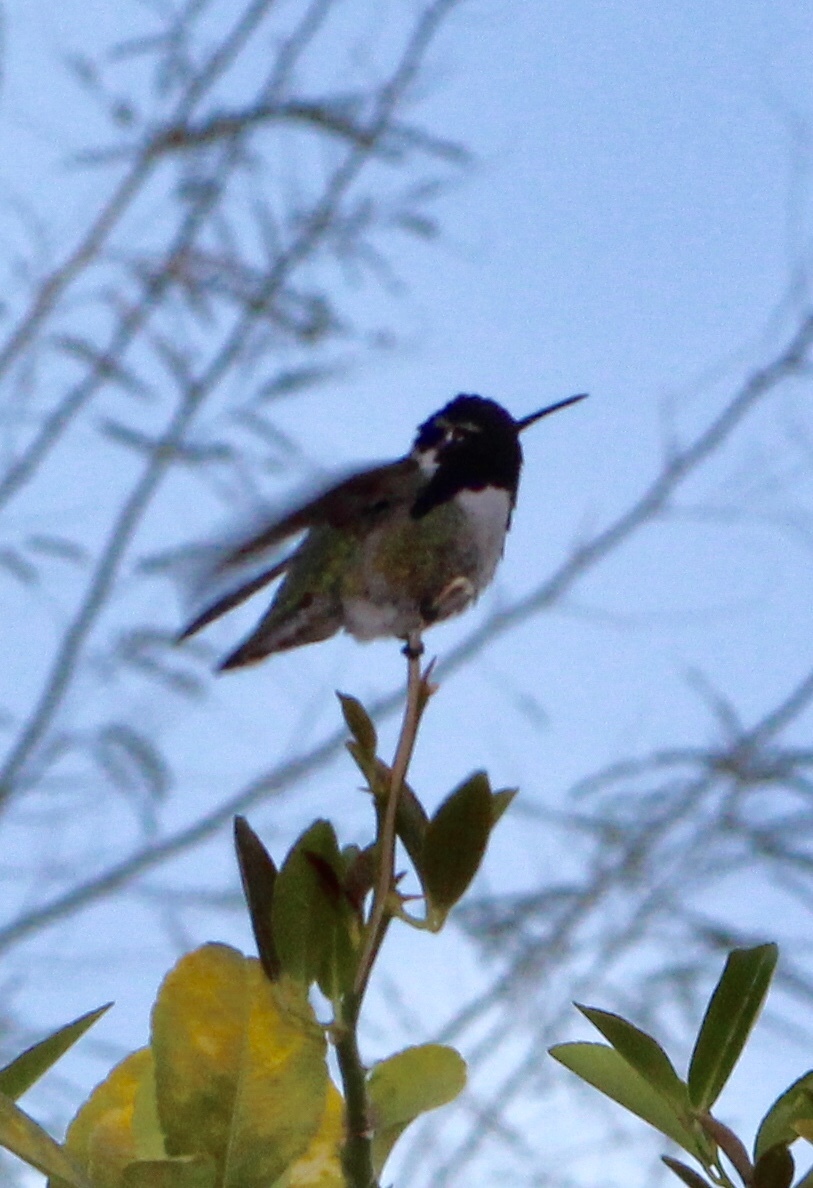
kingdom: Animalia
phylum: Chordata
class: Aves
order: Apodiformes
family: Trochilidae
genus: Calypte
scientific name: Calypte costae
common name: Costa's hummingbird
